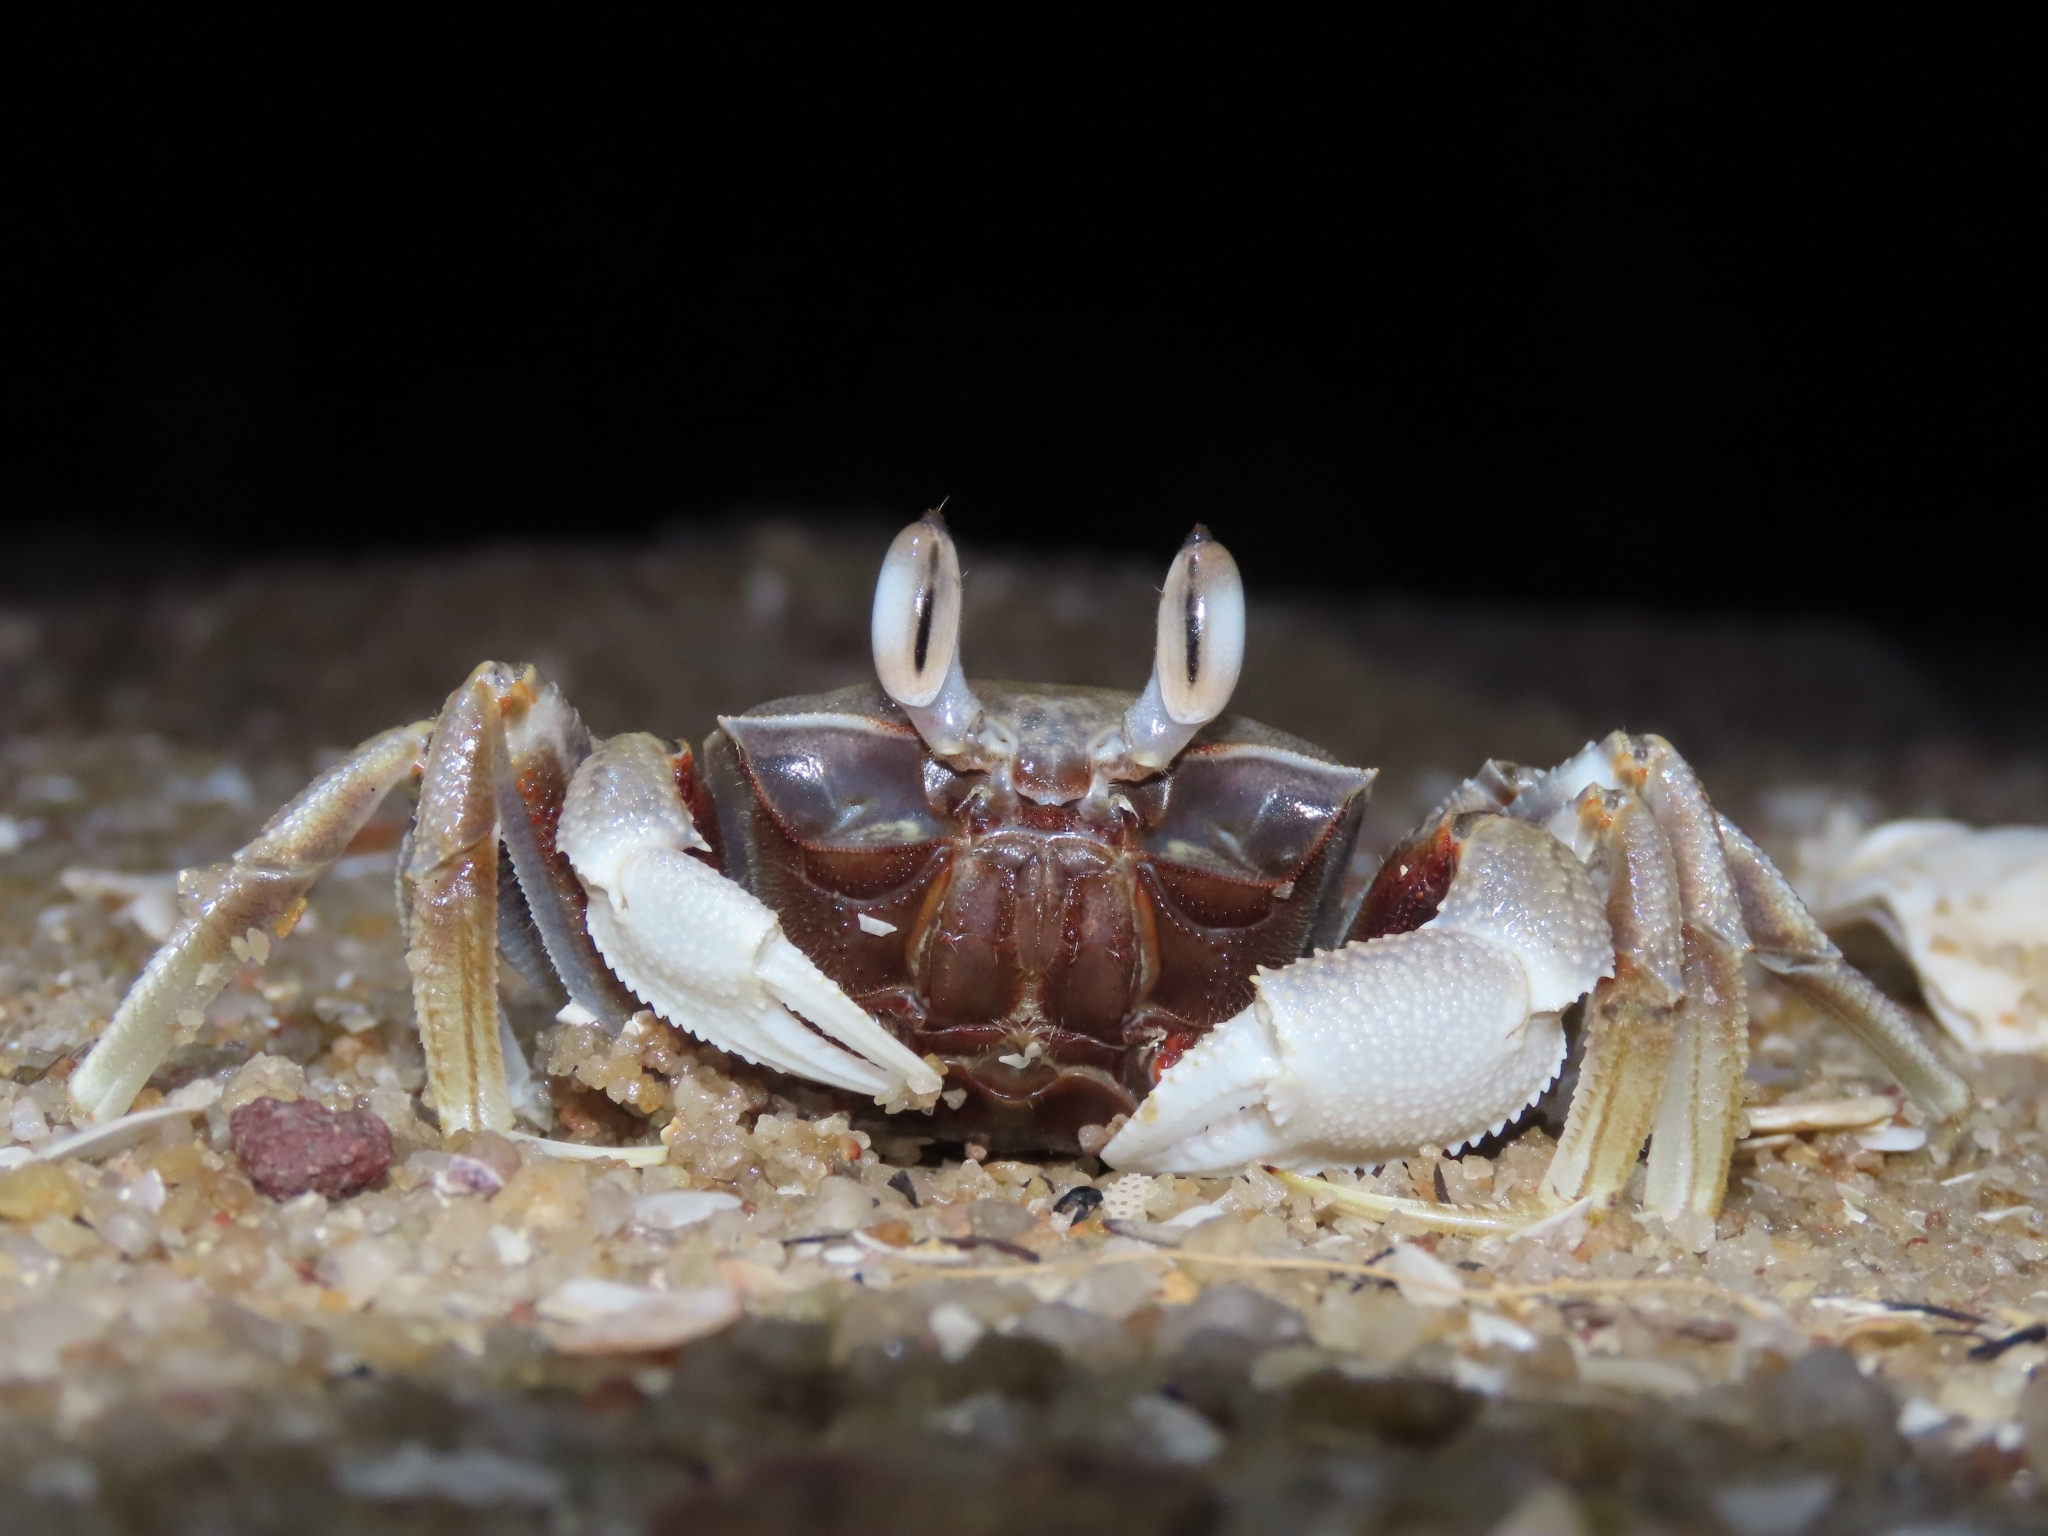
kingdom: Animalia
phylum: Arthropoda
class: Malacostraca
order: Decapoda
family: Ocypodidae
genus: Ocypode
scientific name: Ocypode ceratophthalmus
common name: Indo-pacific ghost crab
